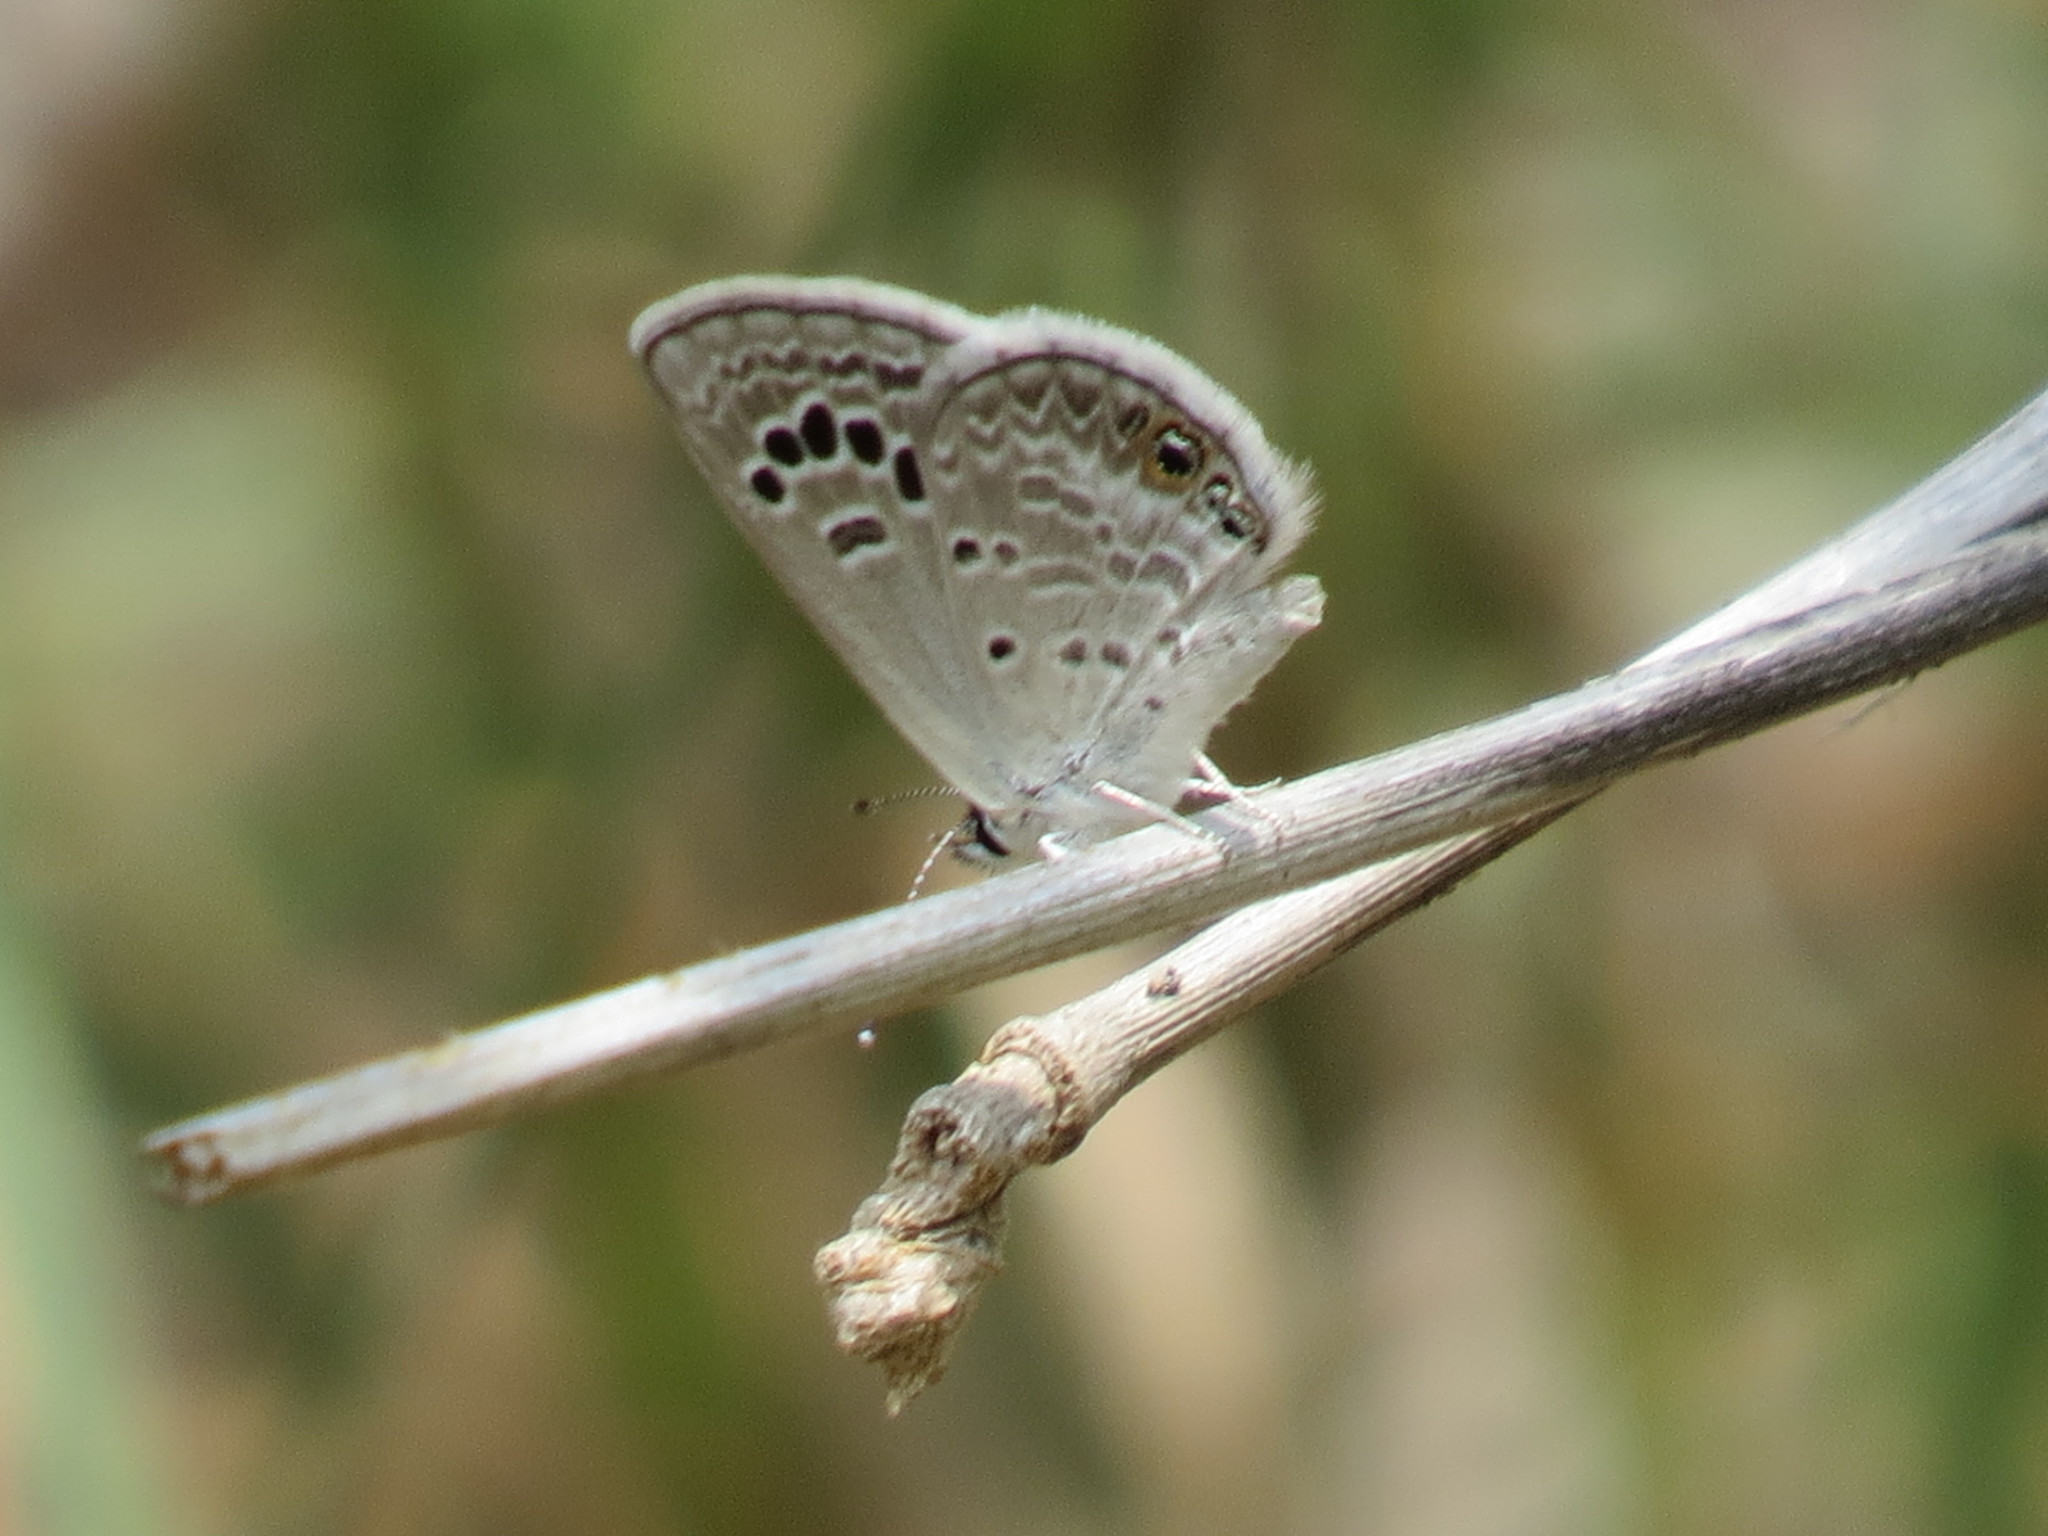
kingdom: Animalia
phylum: Arthropoda
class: Insecta
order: Lepidoptera
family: Lycaenidae
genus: Echinargus
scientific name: Echinargus isola
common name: Reakirt's blue
